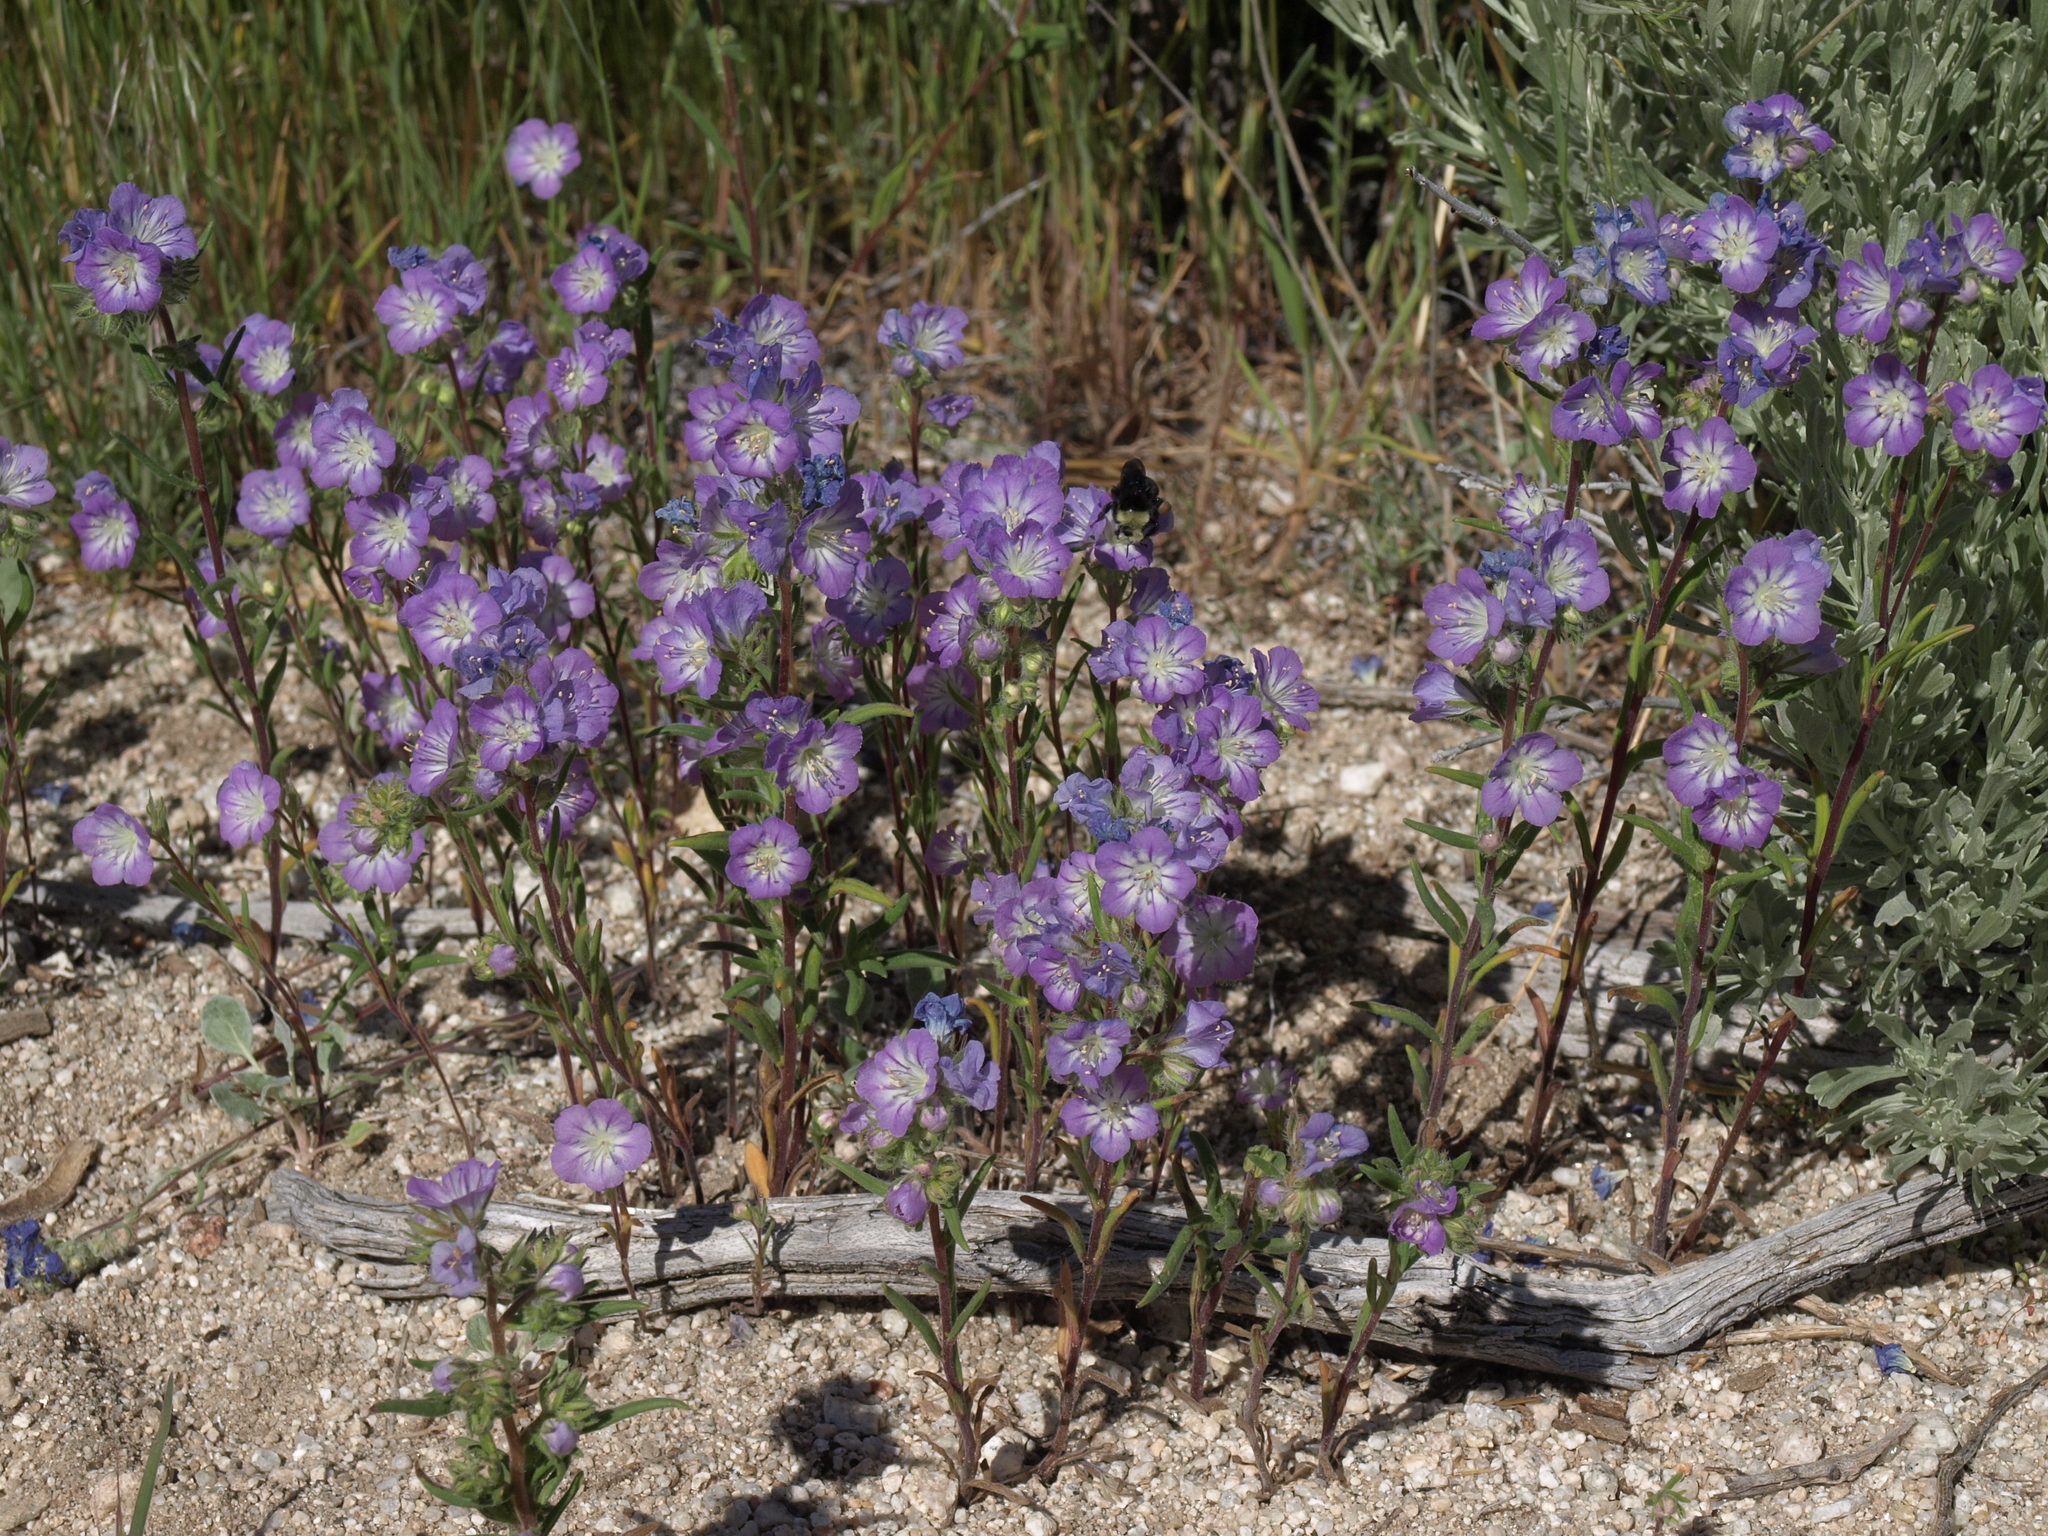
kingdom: Plantae
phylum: Tracheophyta
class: Magnoliopsida
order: Boraginales
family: Hydrophyllaceae
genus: Phacelia
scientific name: Phacelia linearis
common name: Linear-leaved phacelia
